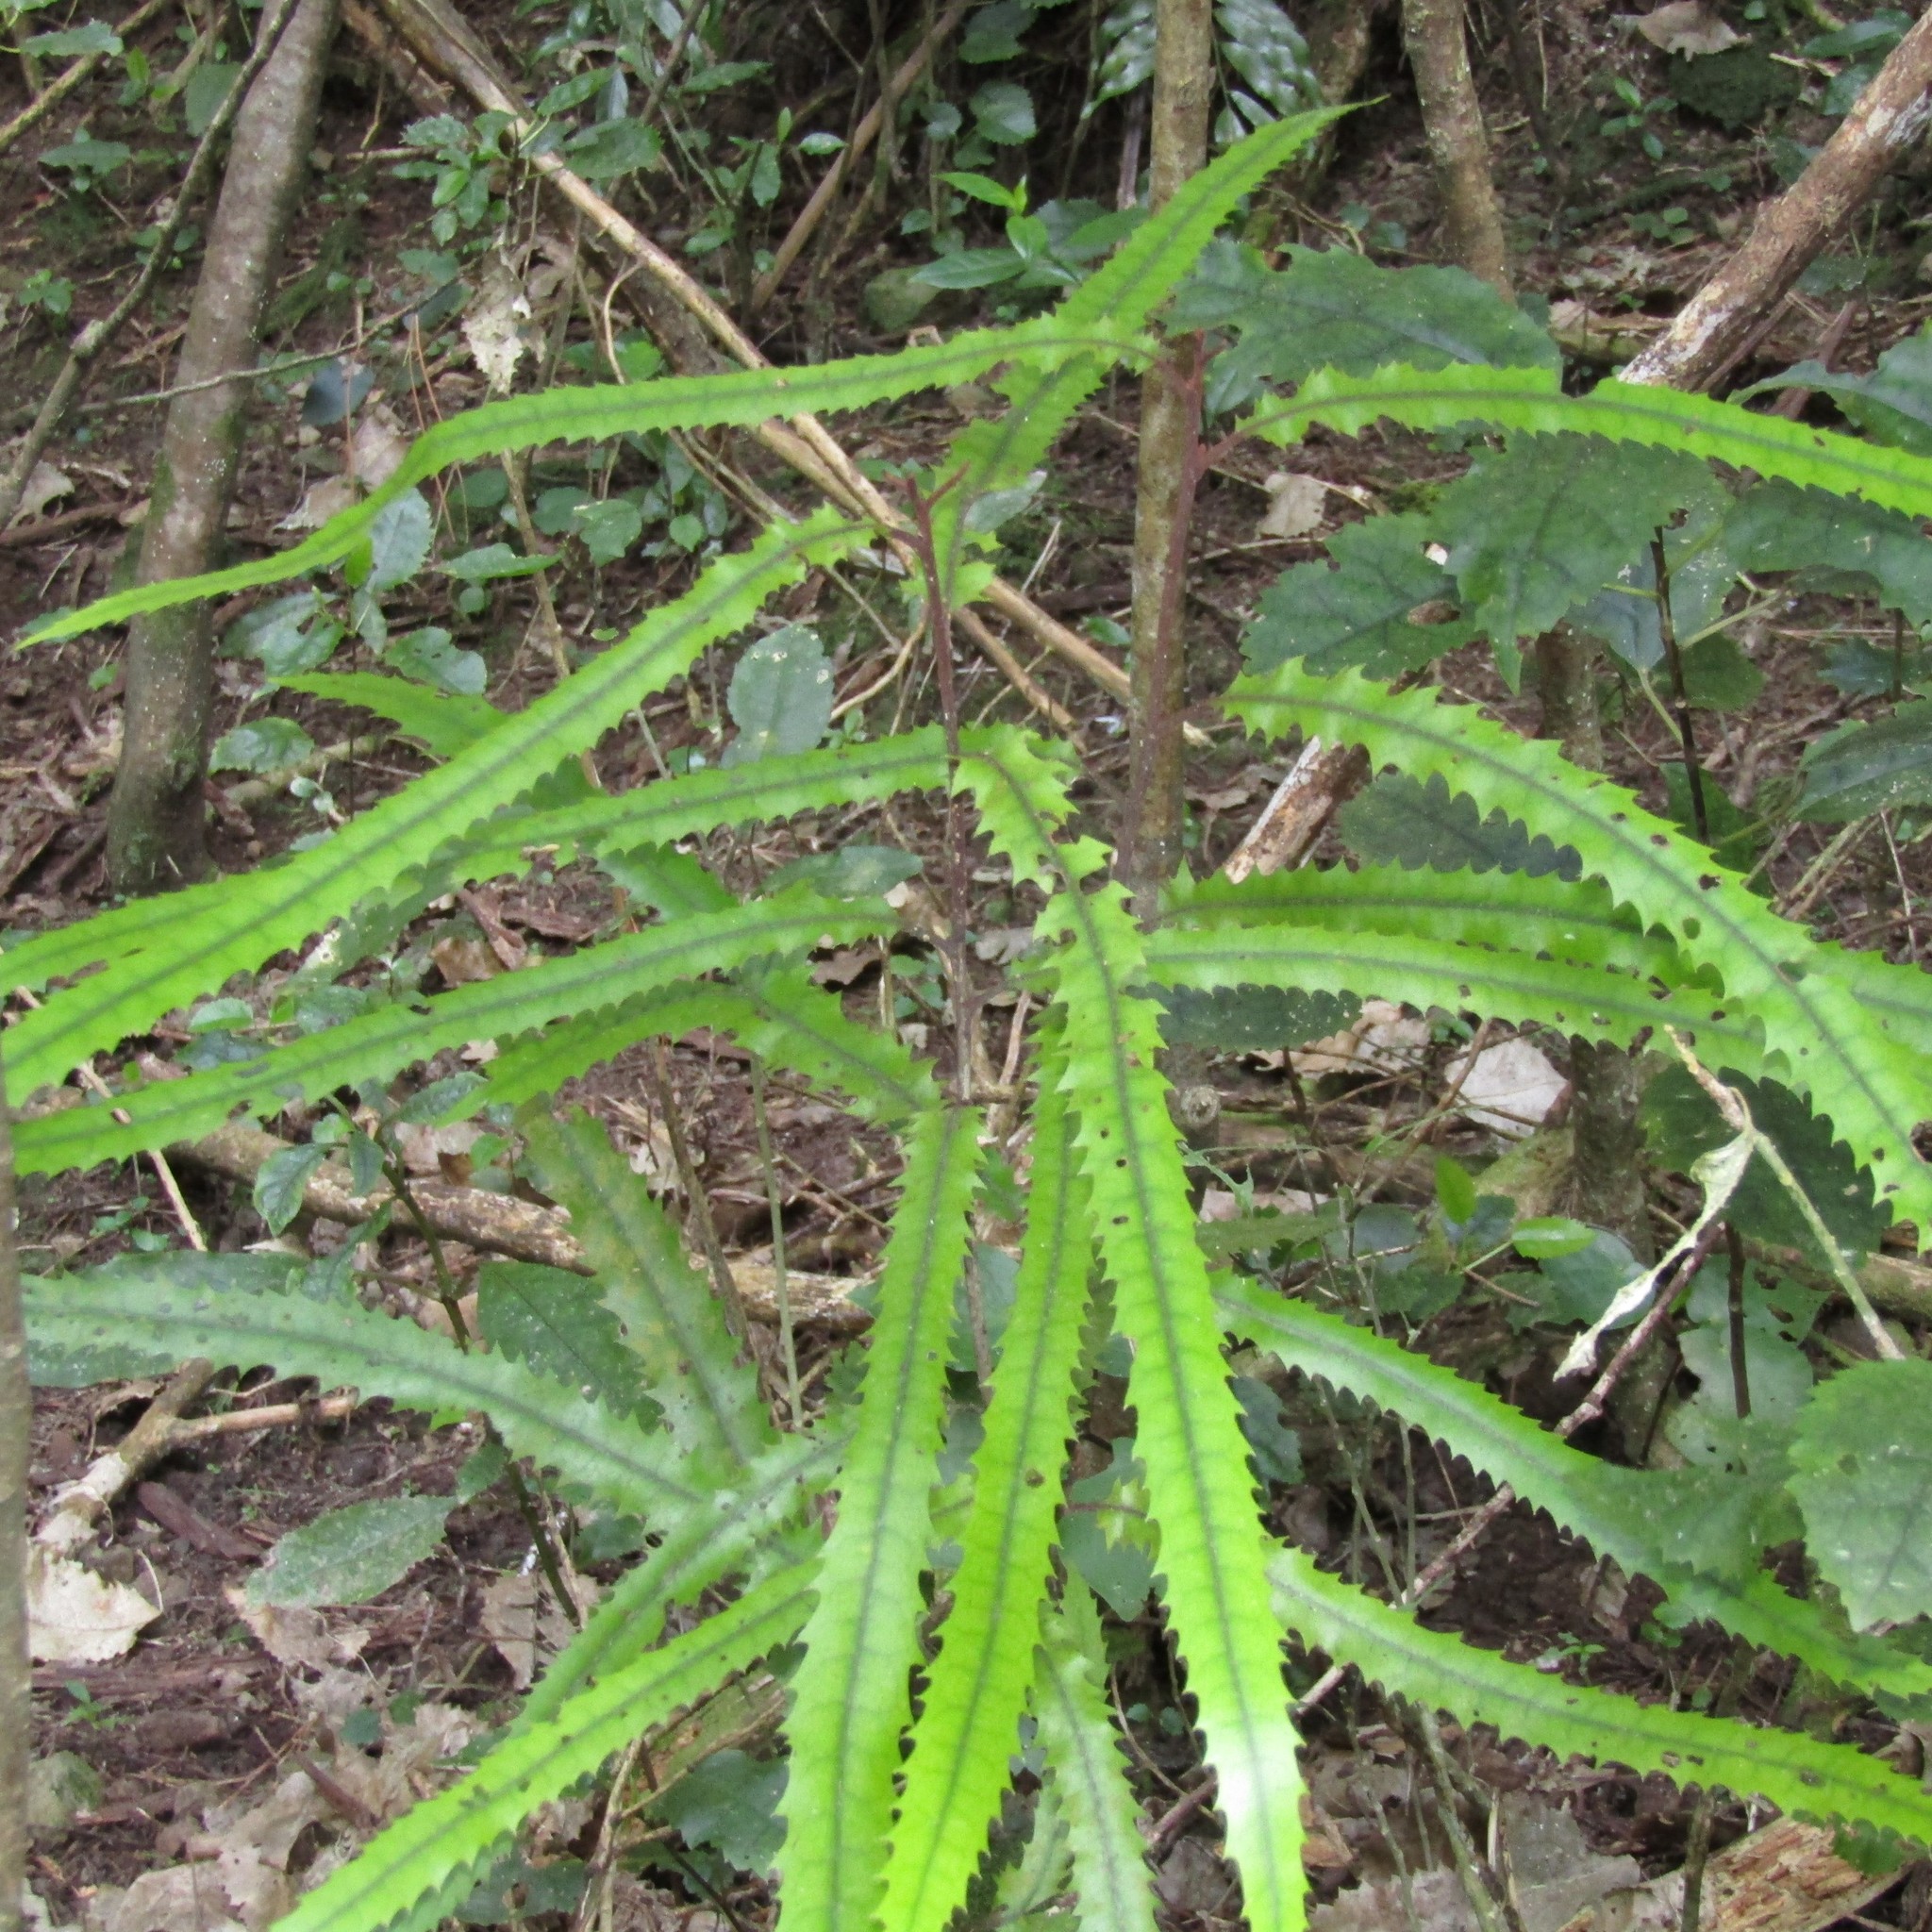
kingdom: Plantae
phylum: Tracheophyta
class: Magnoliopsida
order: Proteales
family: Proteaceae
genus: Knightia
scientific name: Knightia excelsa
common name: New zealand-honeysuckle
